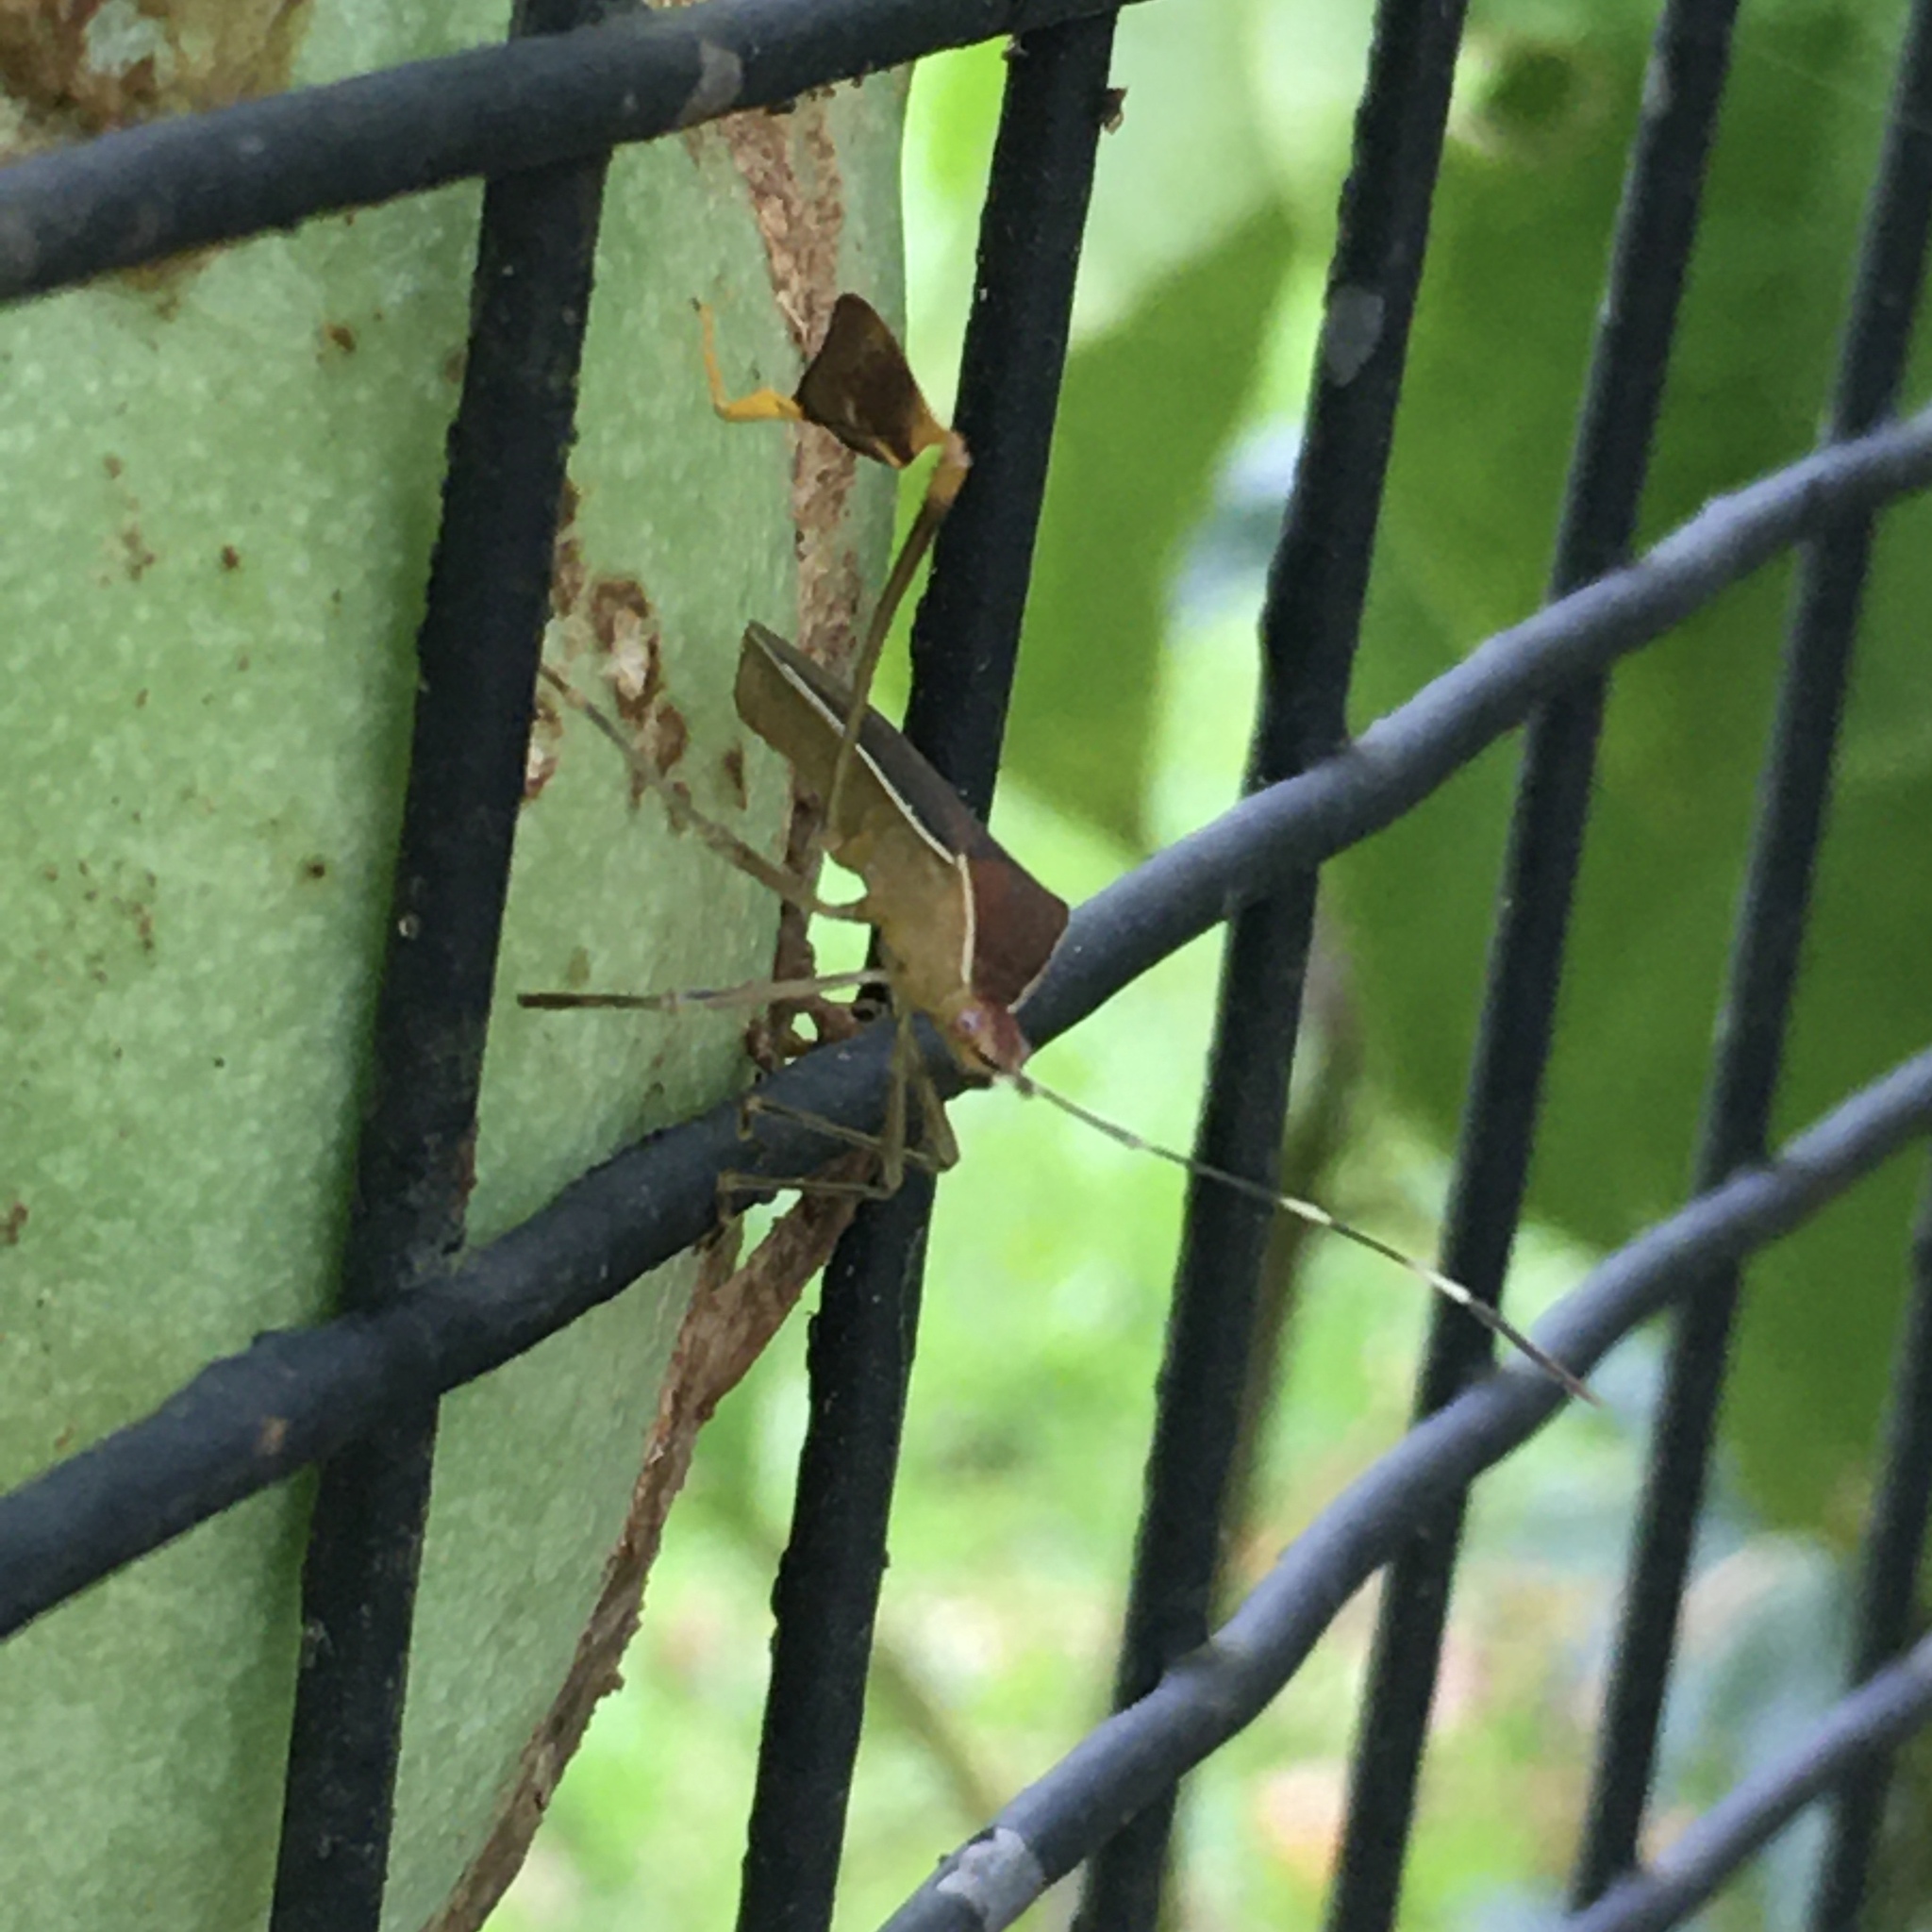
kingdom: Animalia
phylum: Arthropoda
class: Insecta
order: Hemiptera
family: Coreidae
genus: Anisoscelis
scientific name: Anisoscelis marginellus
